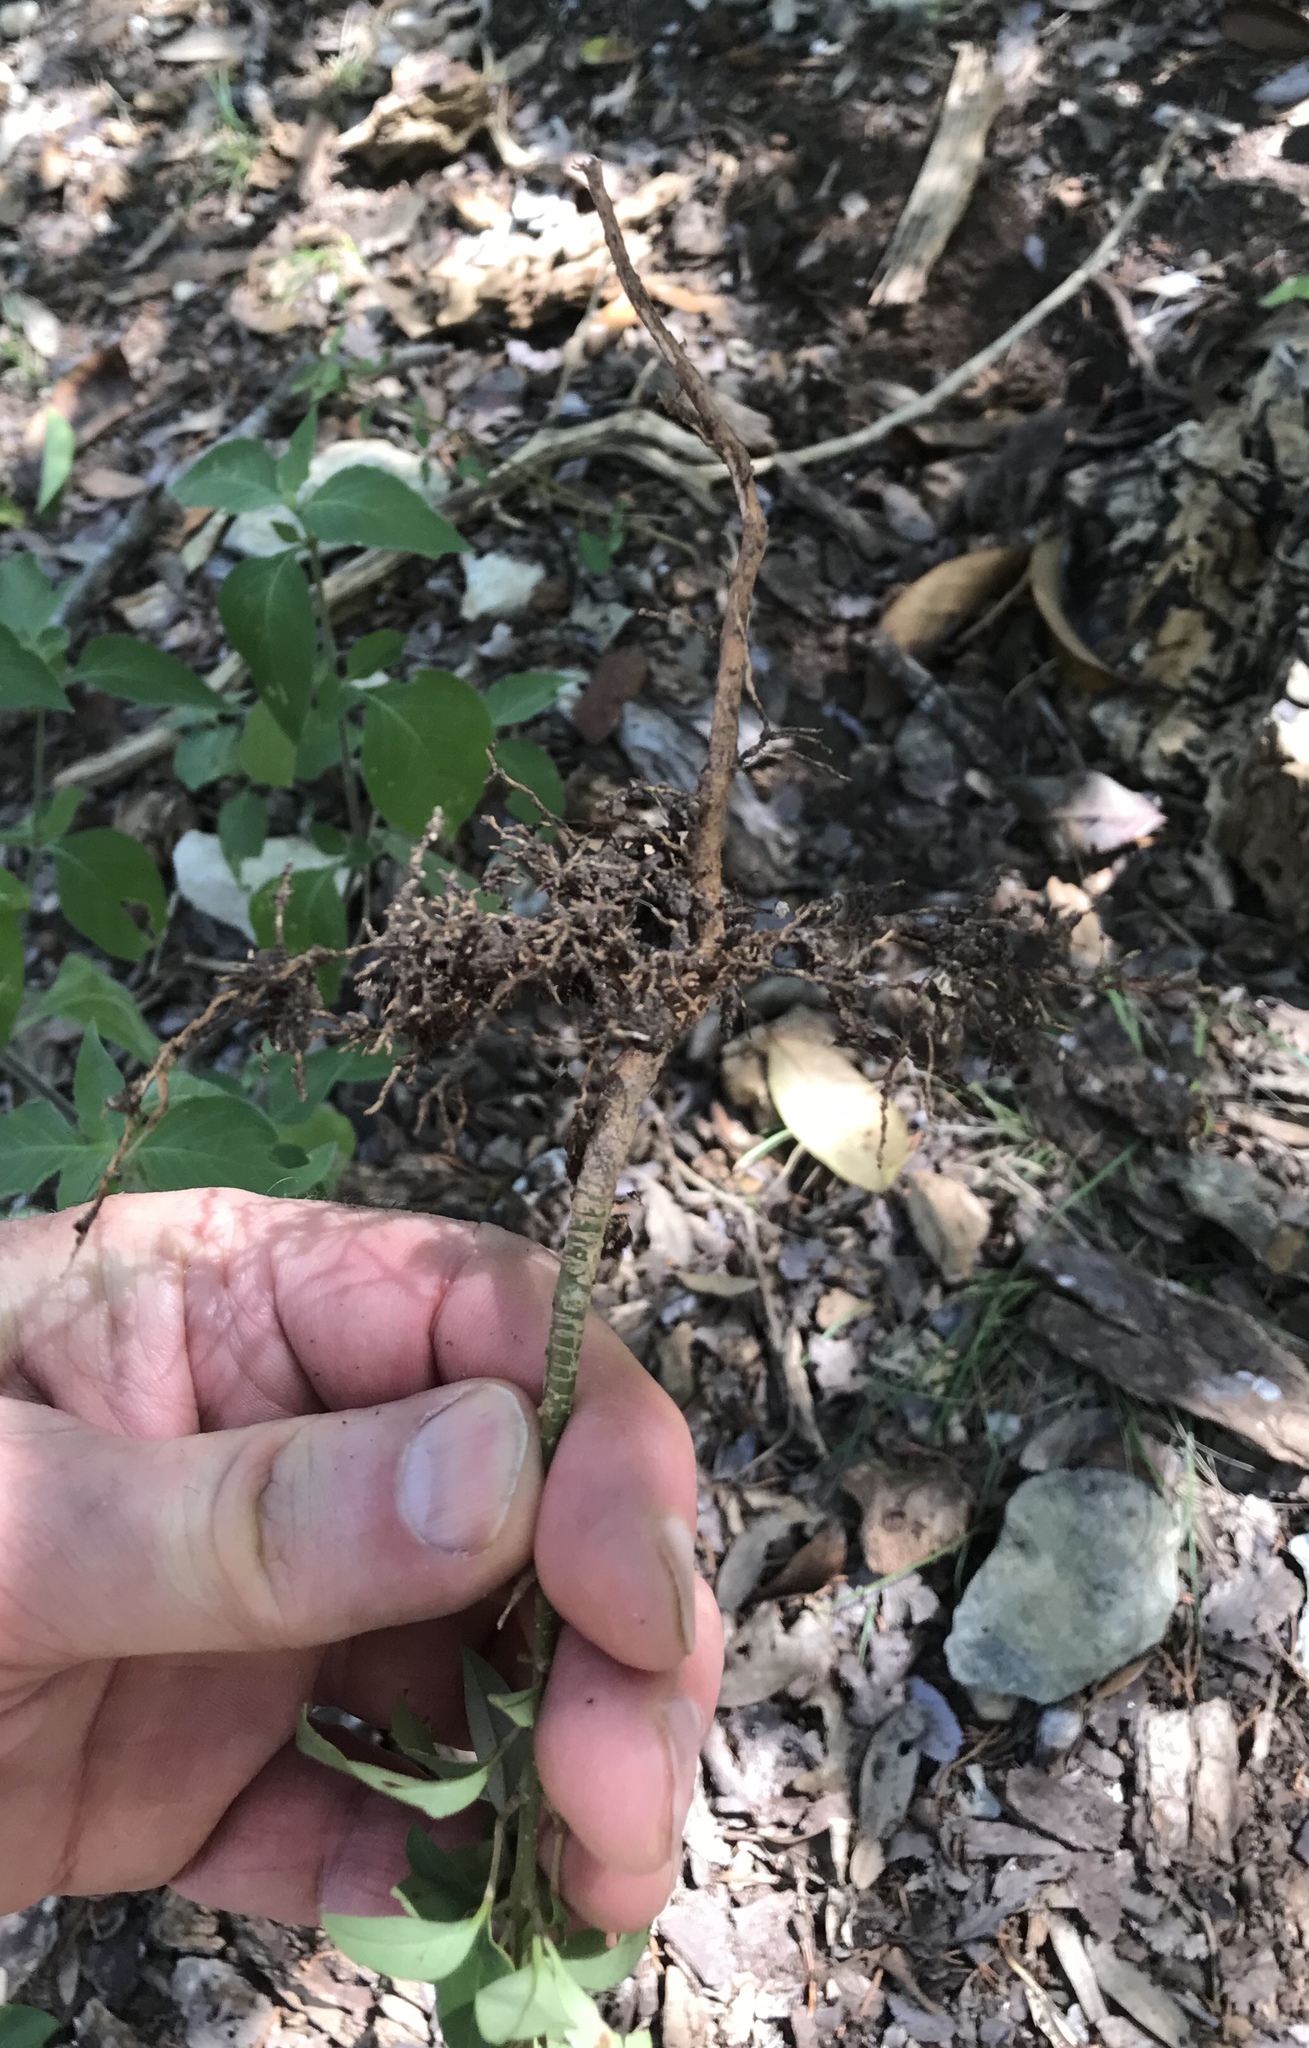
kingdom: Plantae
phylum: Tracheophyta
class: Magnoliopsida
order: Lamiales
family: Oleaceae
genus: Ligustrum
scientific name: Ligustrum lucidum
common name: Glossy privet
